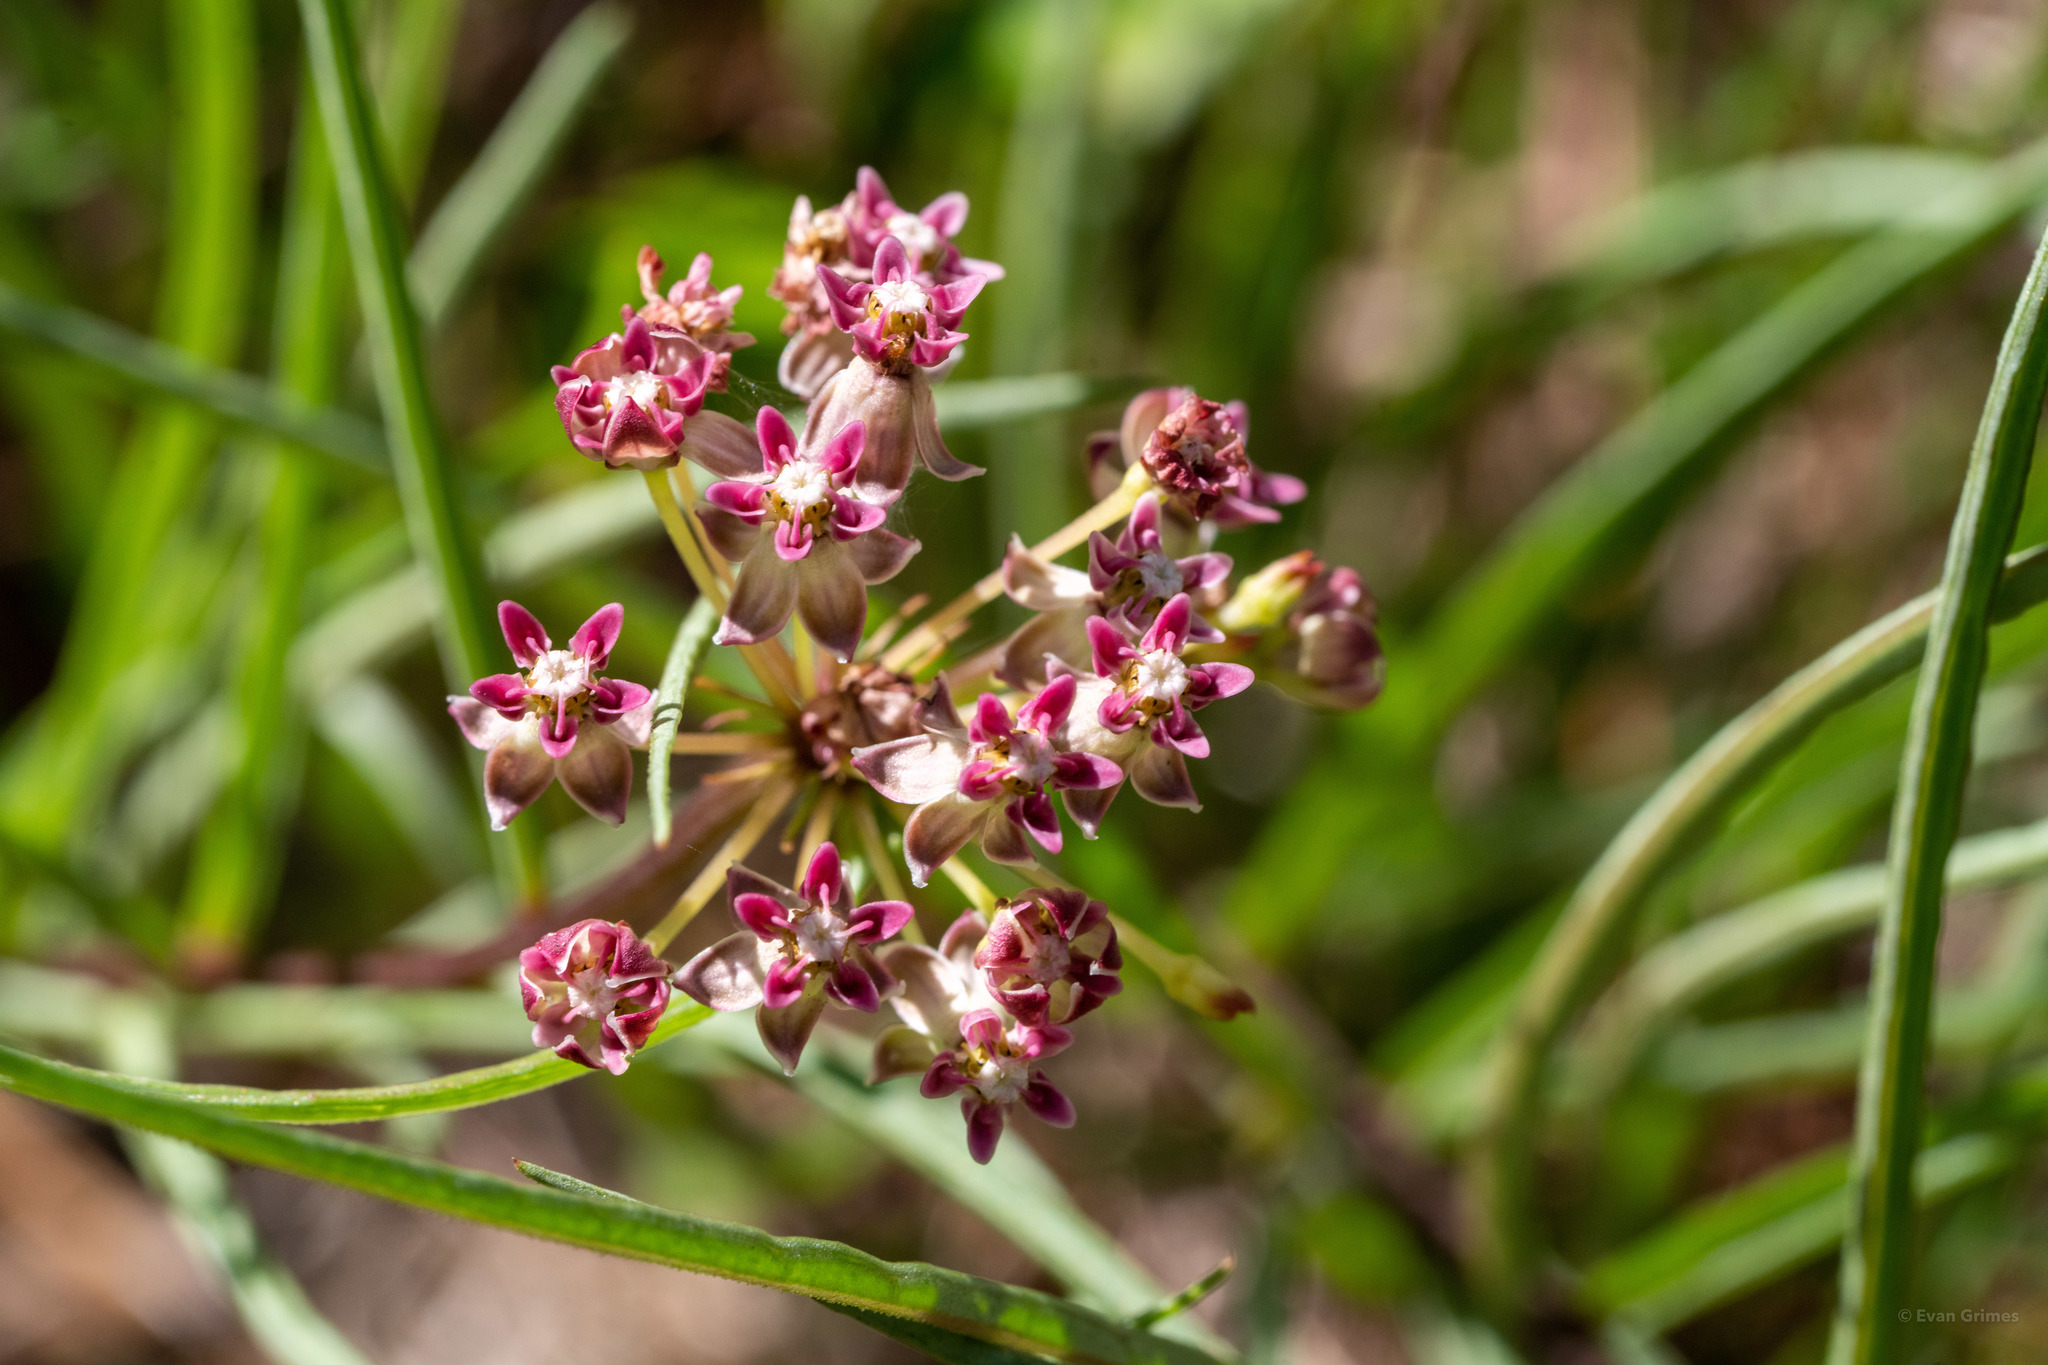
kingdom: Plantae
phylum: Tracheophyta
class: Magnoliopsida
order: Gentianales
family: Apocynaceae
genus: Asclepias
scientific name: Asclepias michauxii
